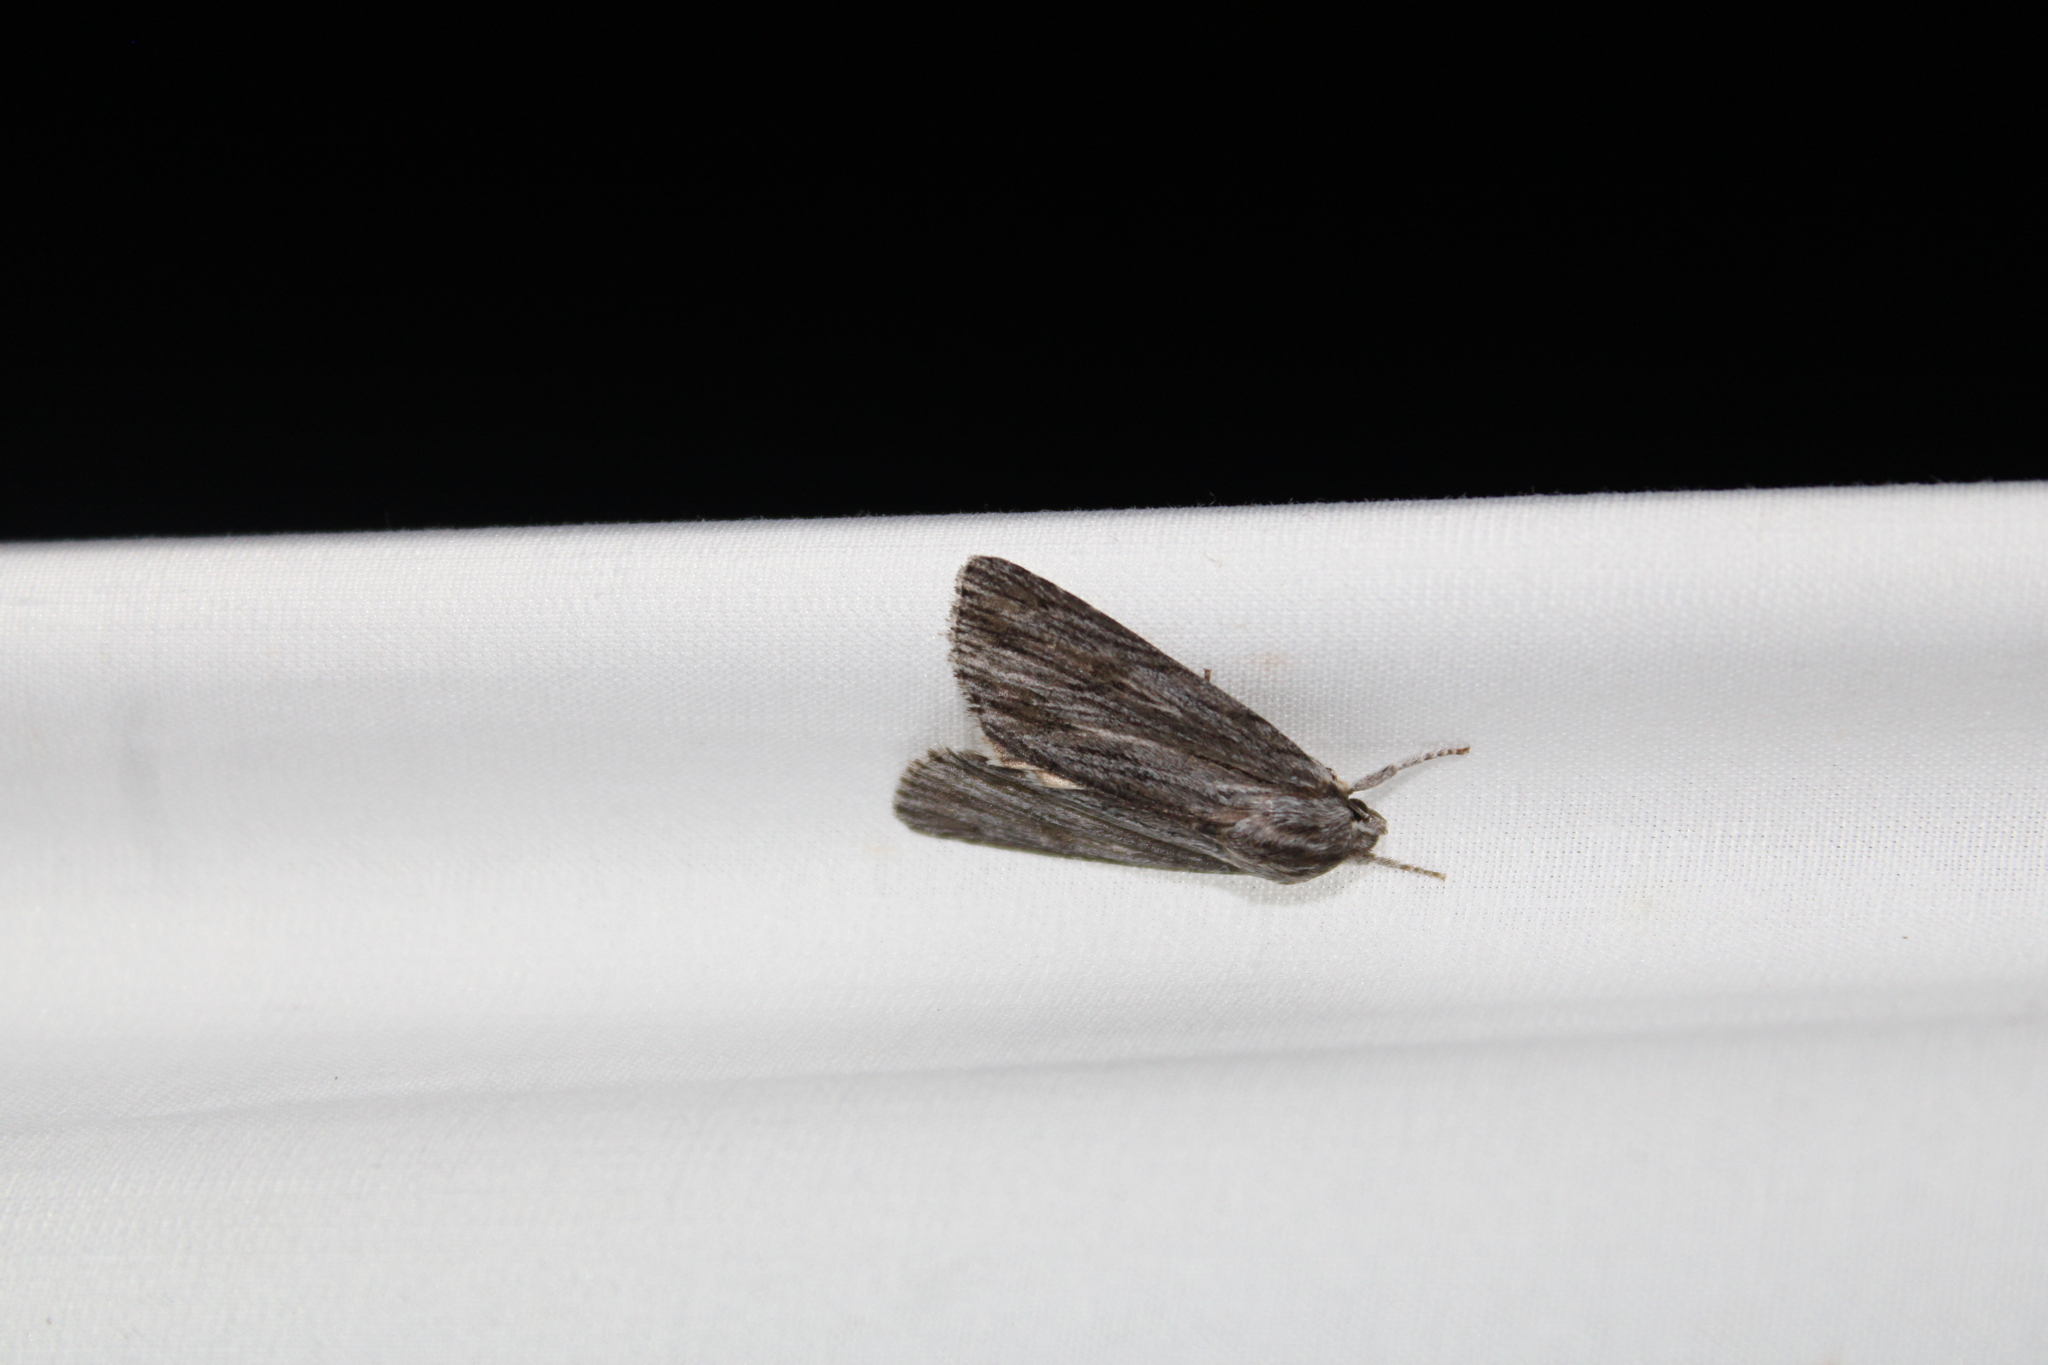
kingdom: Animalia
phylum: Arthropoda
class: Insecta
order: Lepidoptera
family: Noctuidae
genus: Acronicta
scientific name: Acronicta lithospila
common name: Streaked dagger
